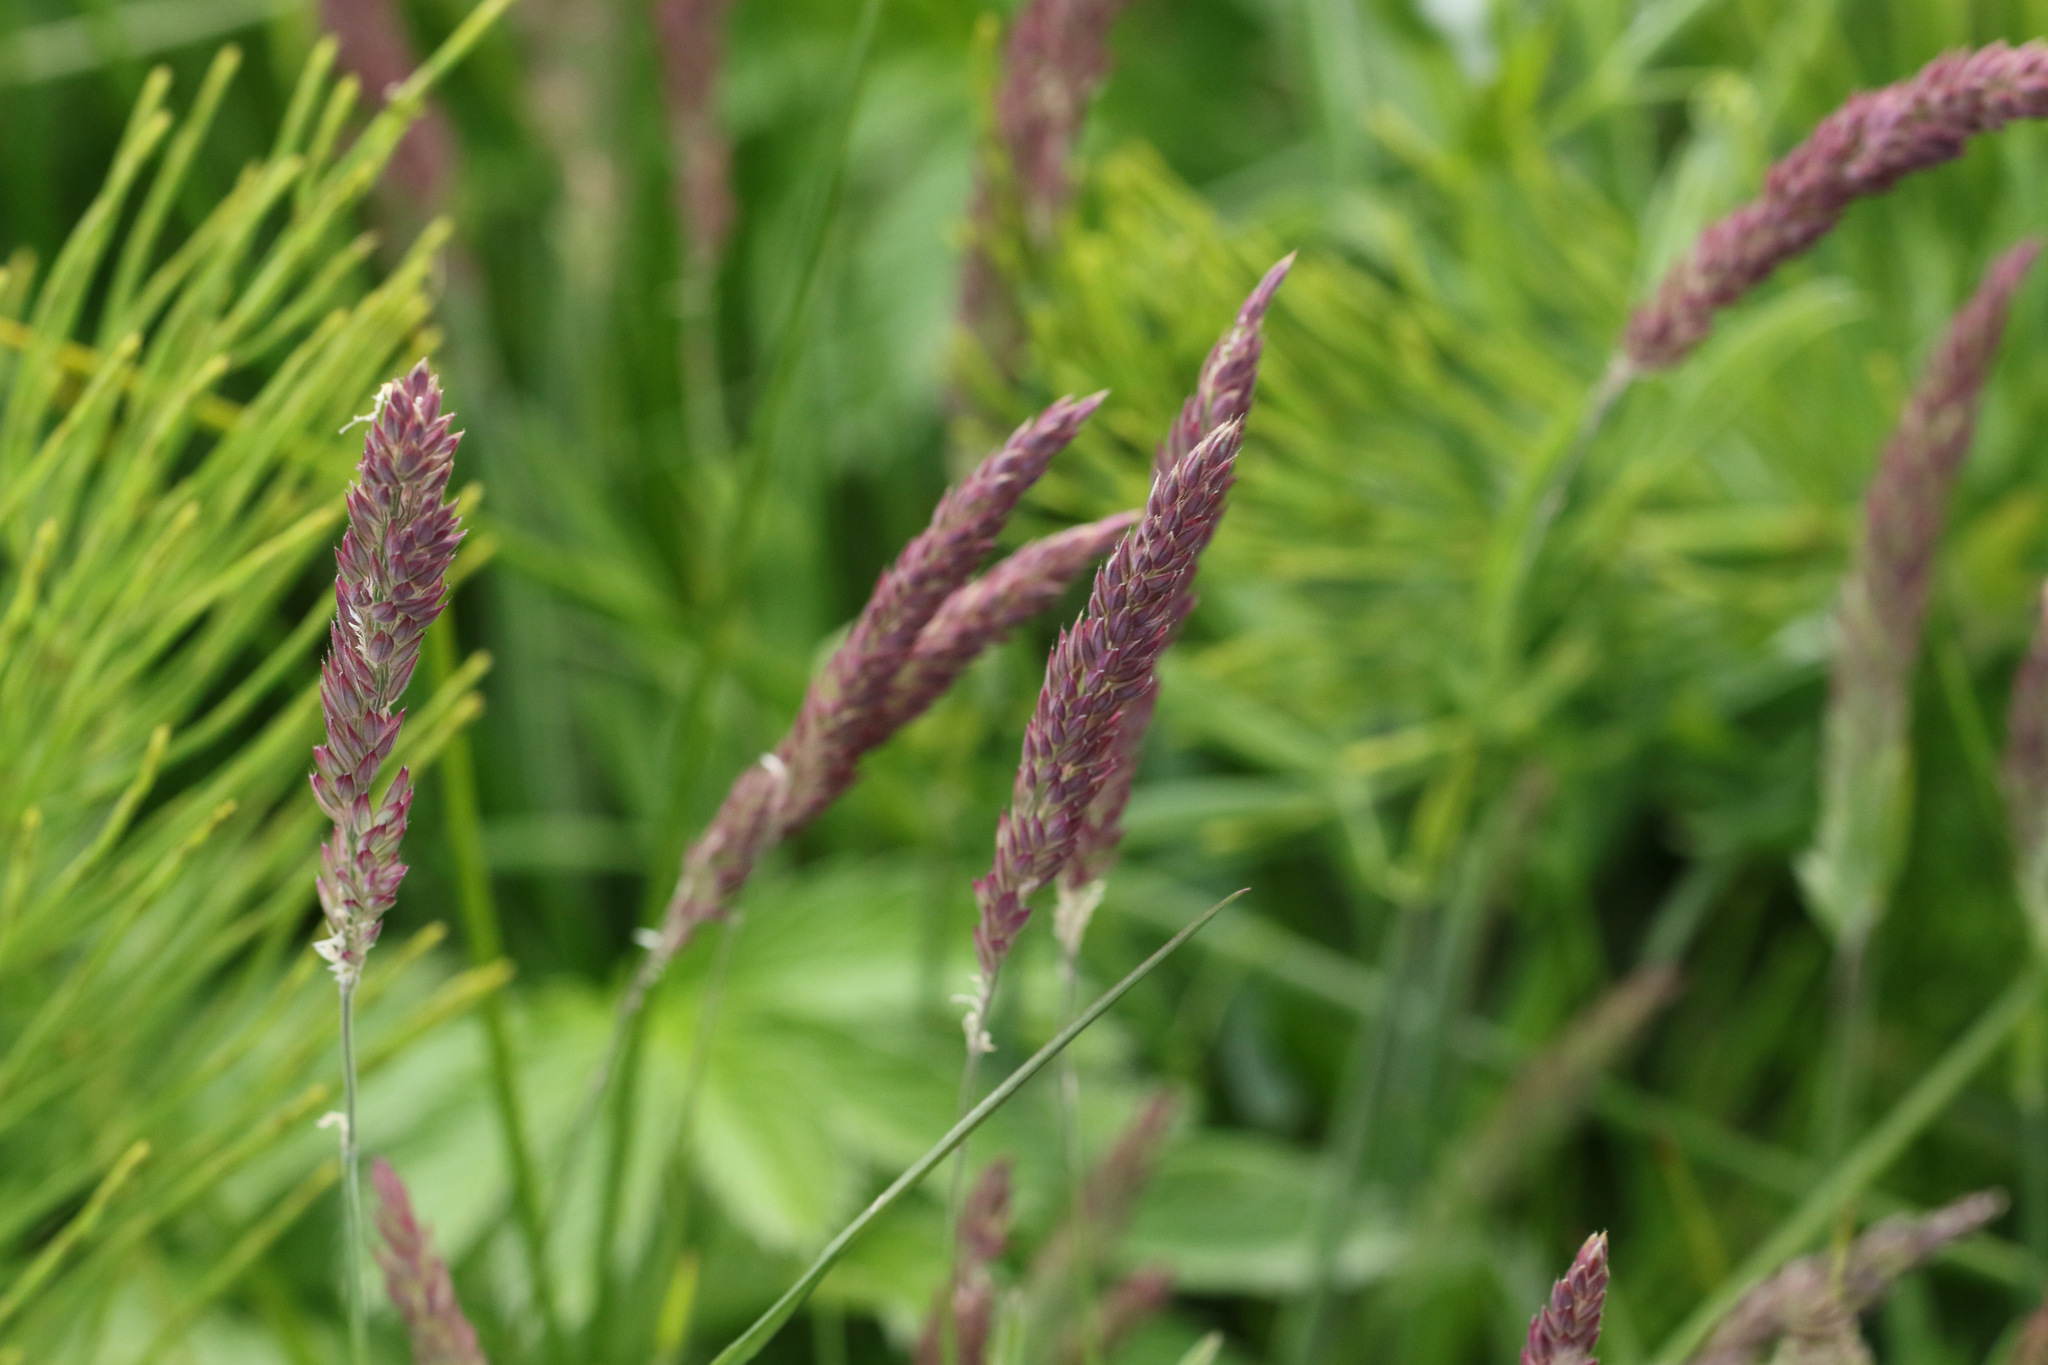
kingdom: Plantae
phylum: Tracheophyta
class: Liliopsida
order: Poales
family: Poaceae
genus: Holcus
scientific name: Holcus lanatus
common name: Yorkshire-fog
